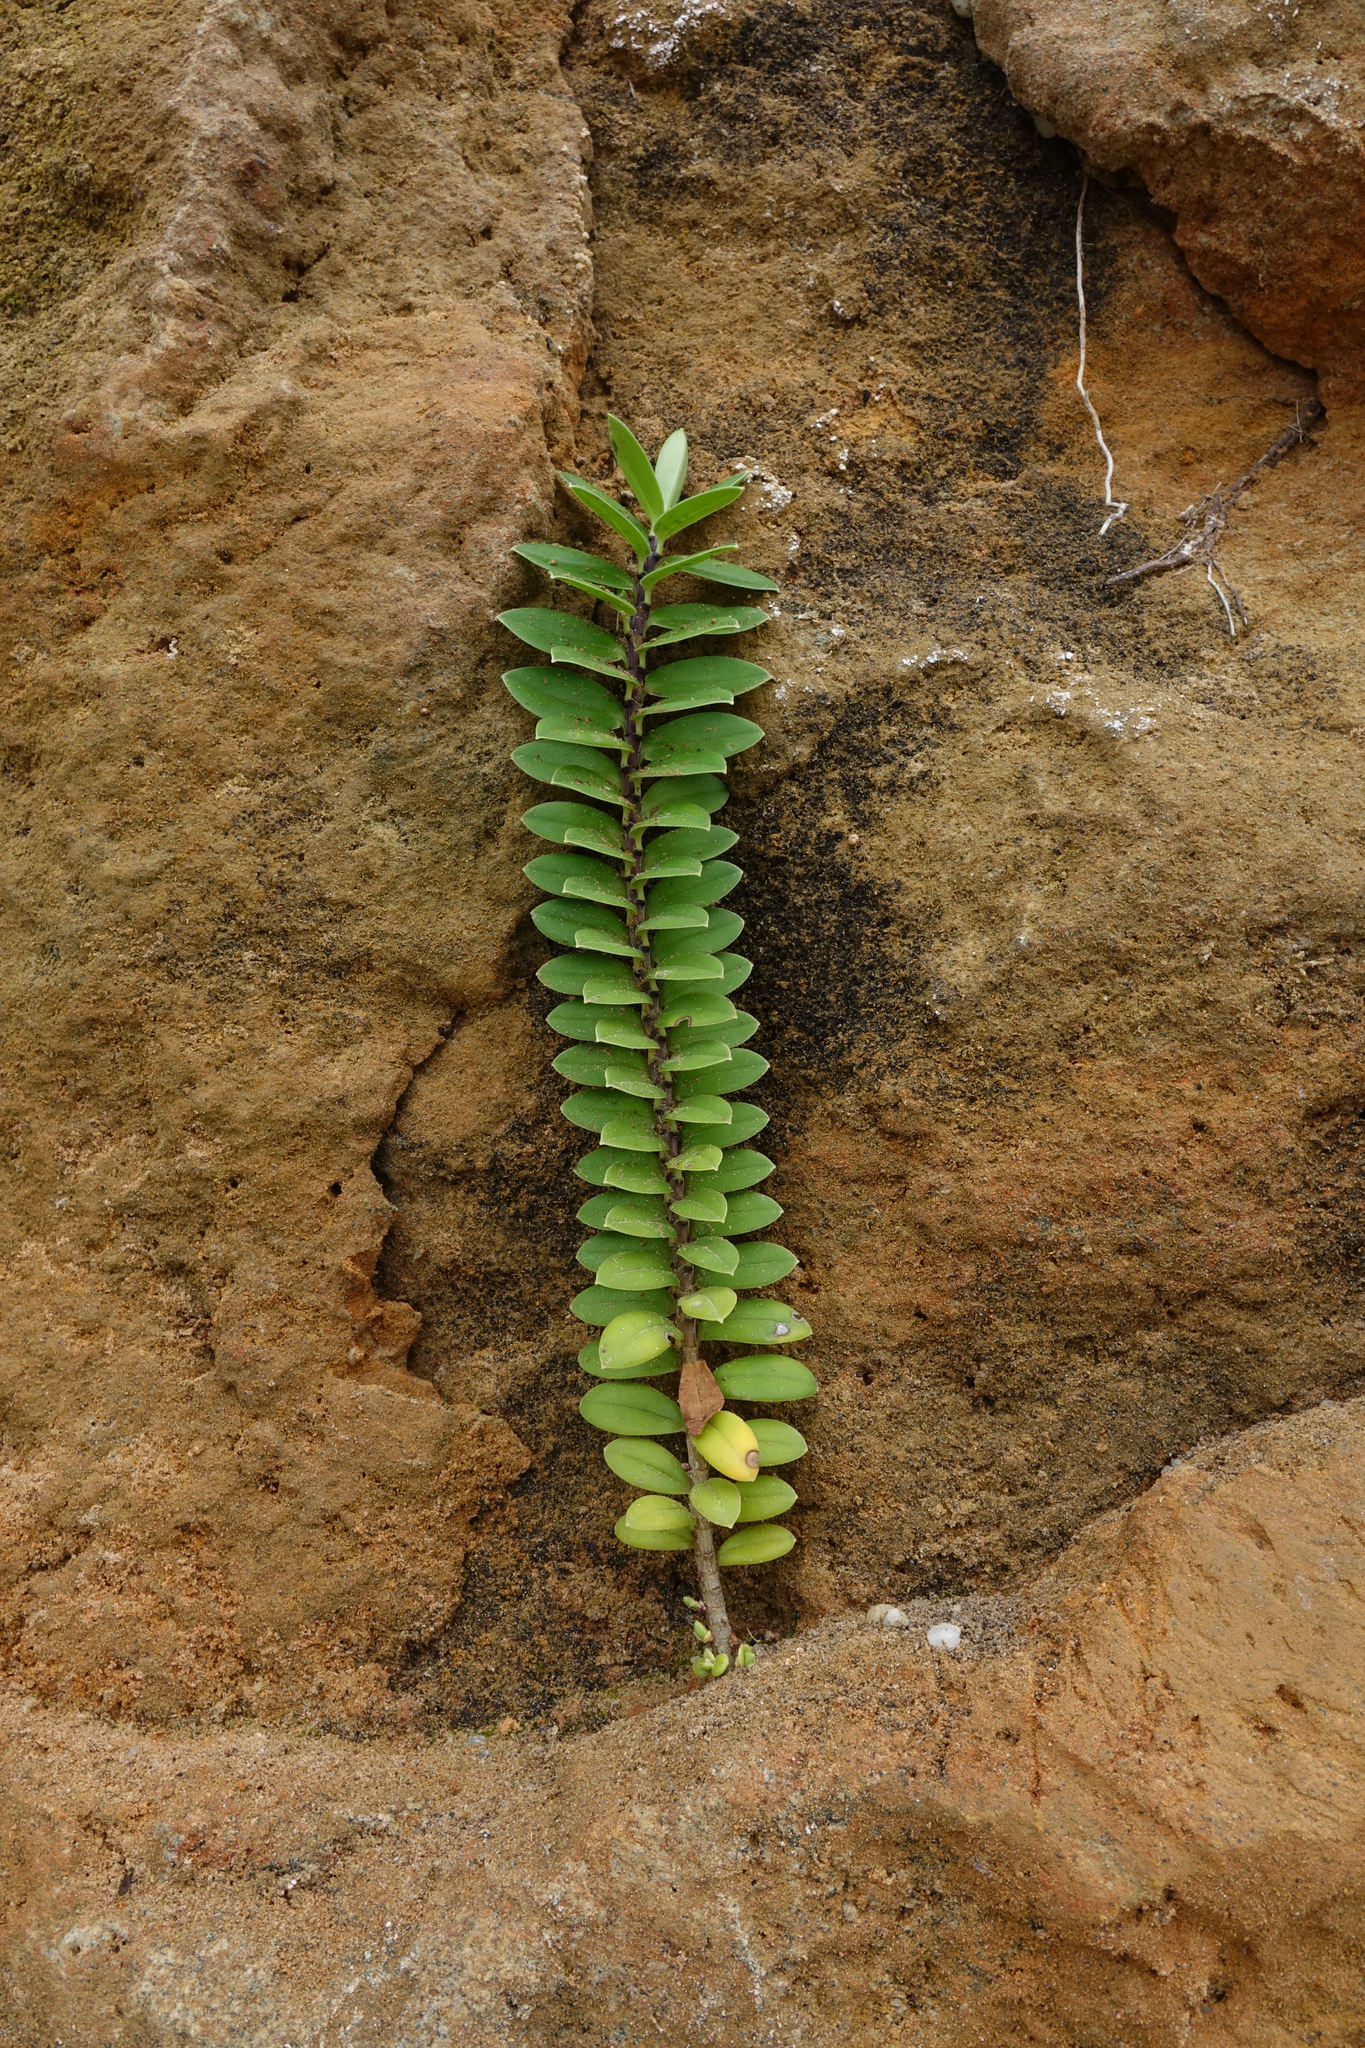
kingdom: Plantae
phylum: Tracheophyta
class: Magnoliopsida
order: Lamiales
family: Plantaginaceae
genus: Veronica
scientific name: Veronica elliptica
